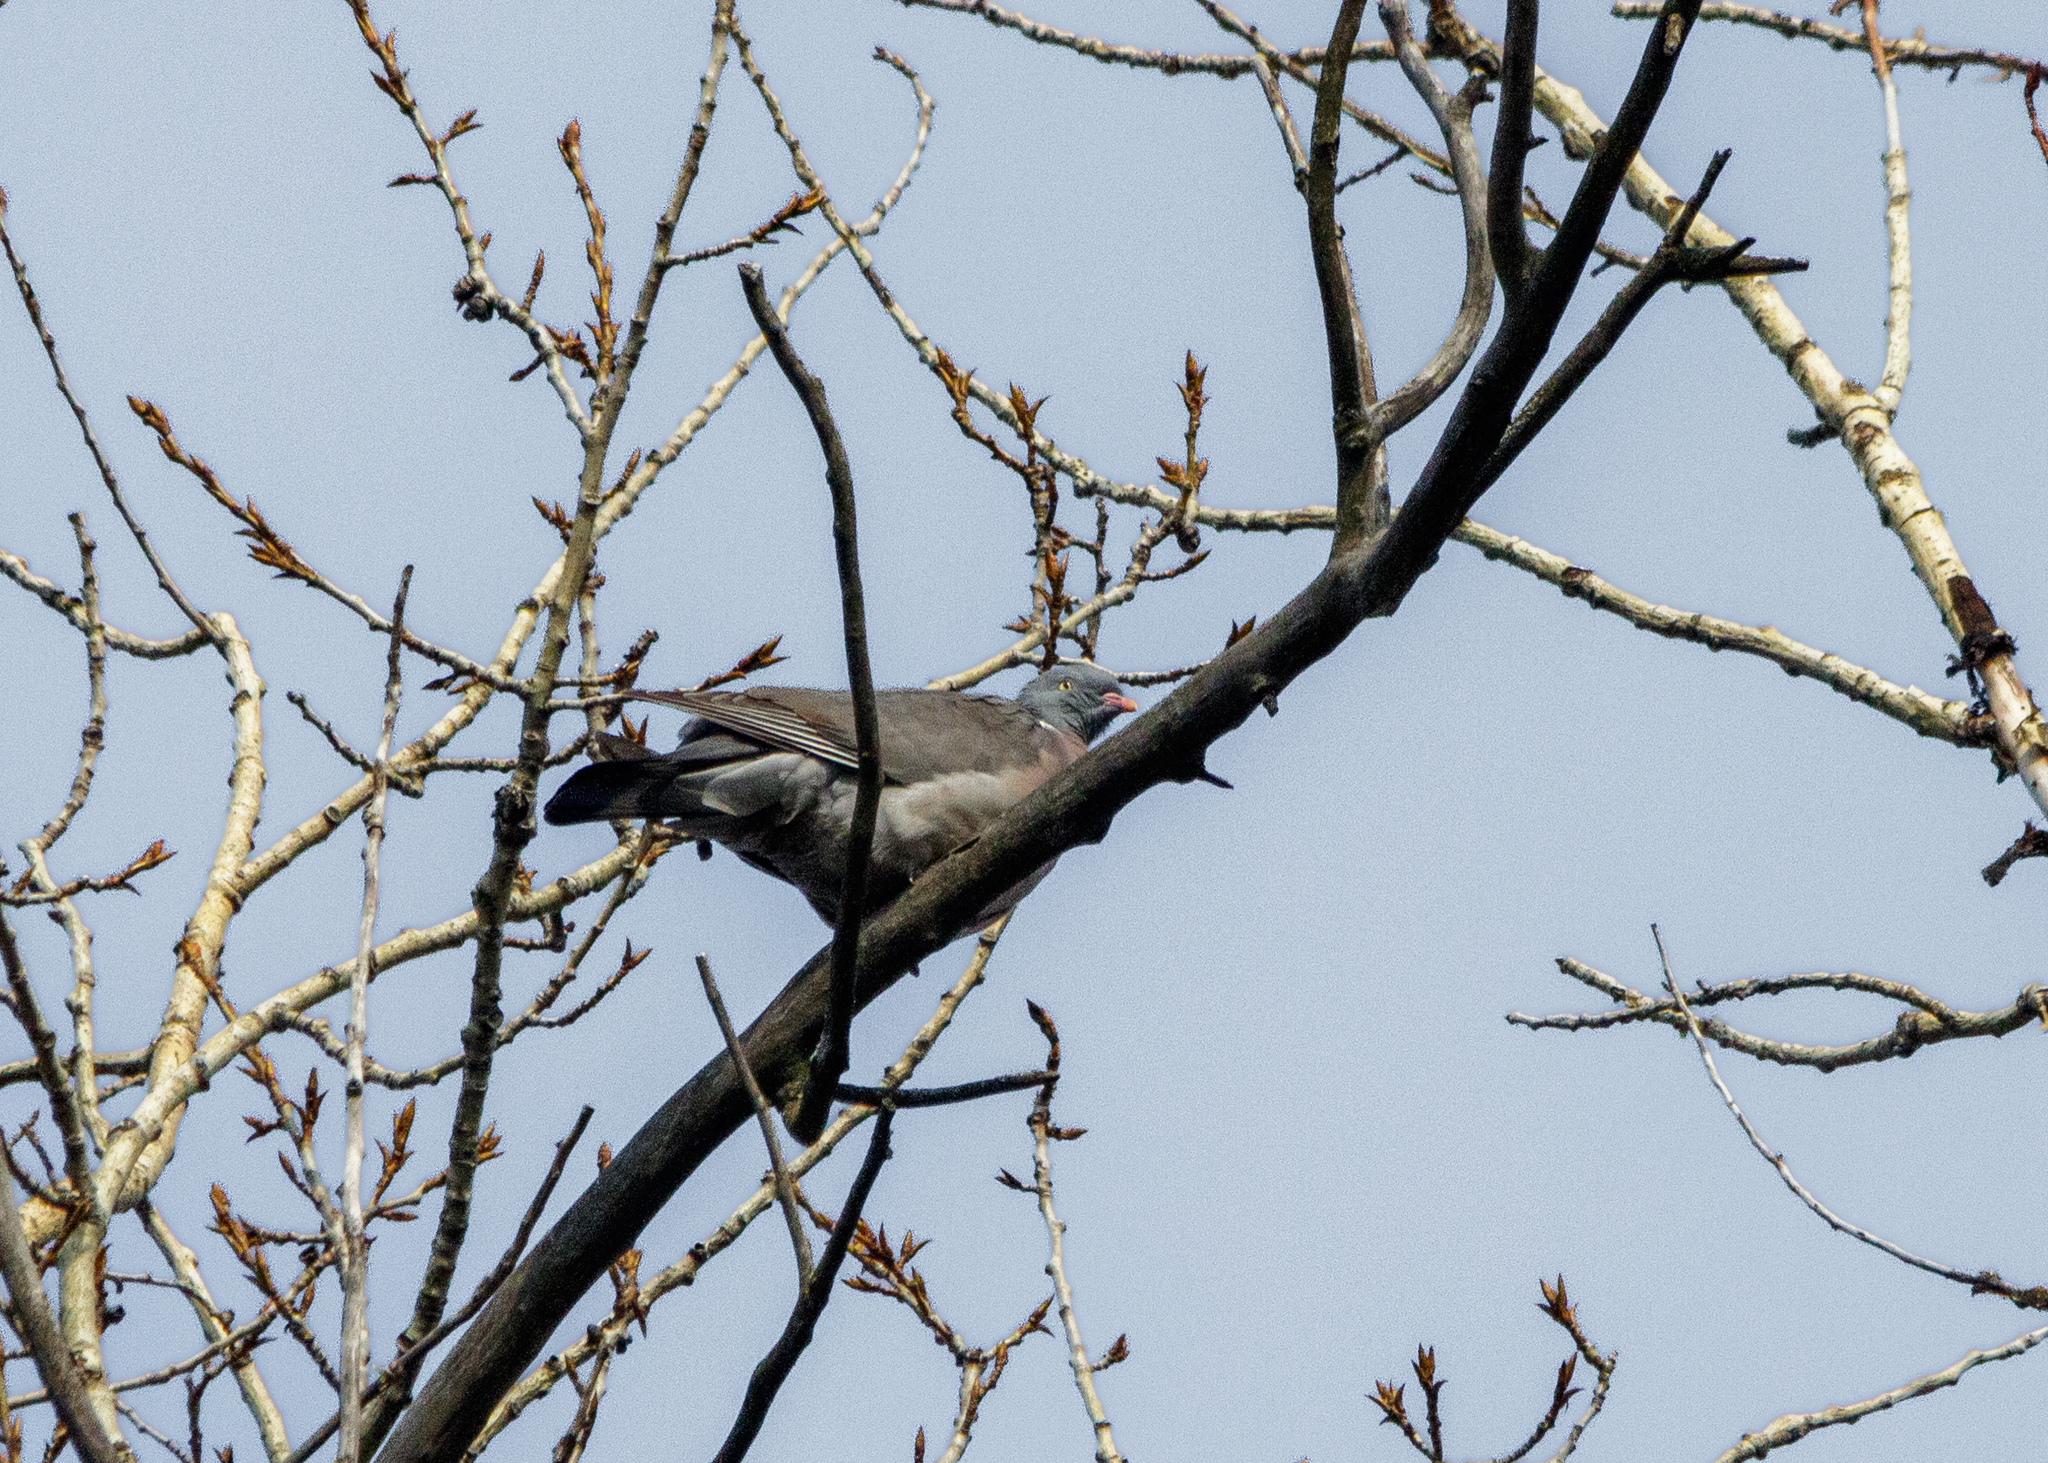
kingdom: Animalia
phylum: Chordata
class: Aves
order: Columbiformes
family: Columbidae
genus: Columba
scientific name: Columba palumbus
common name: Common wood pigeon
